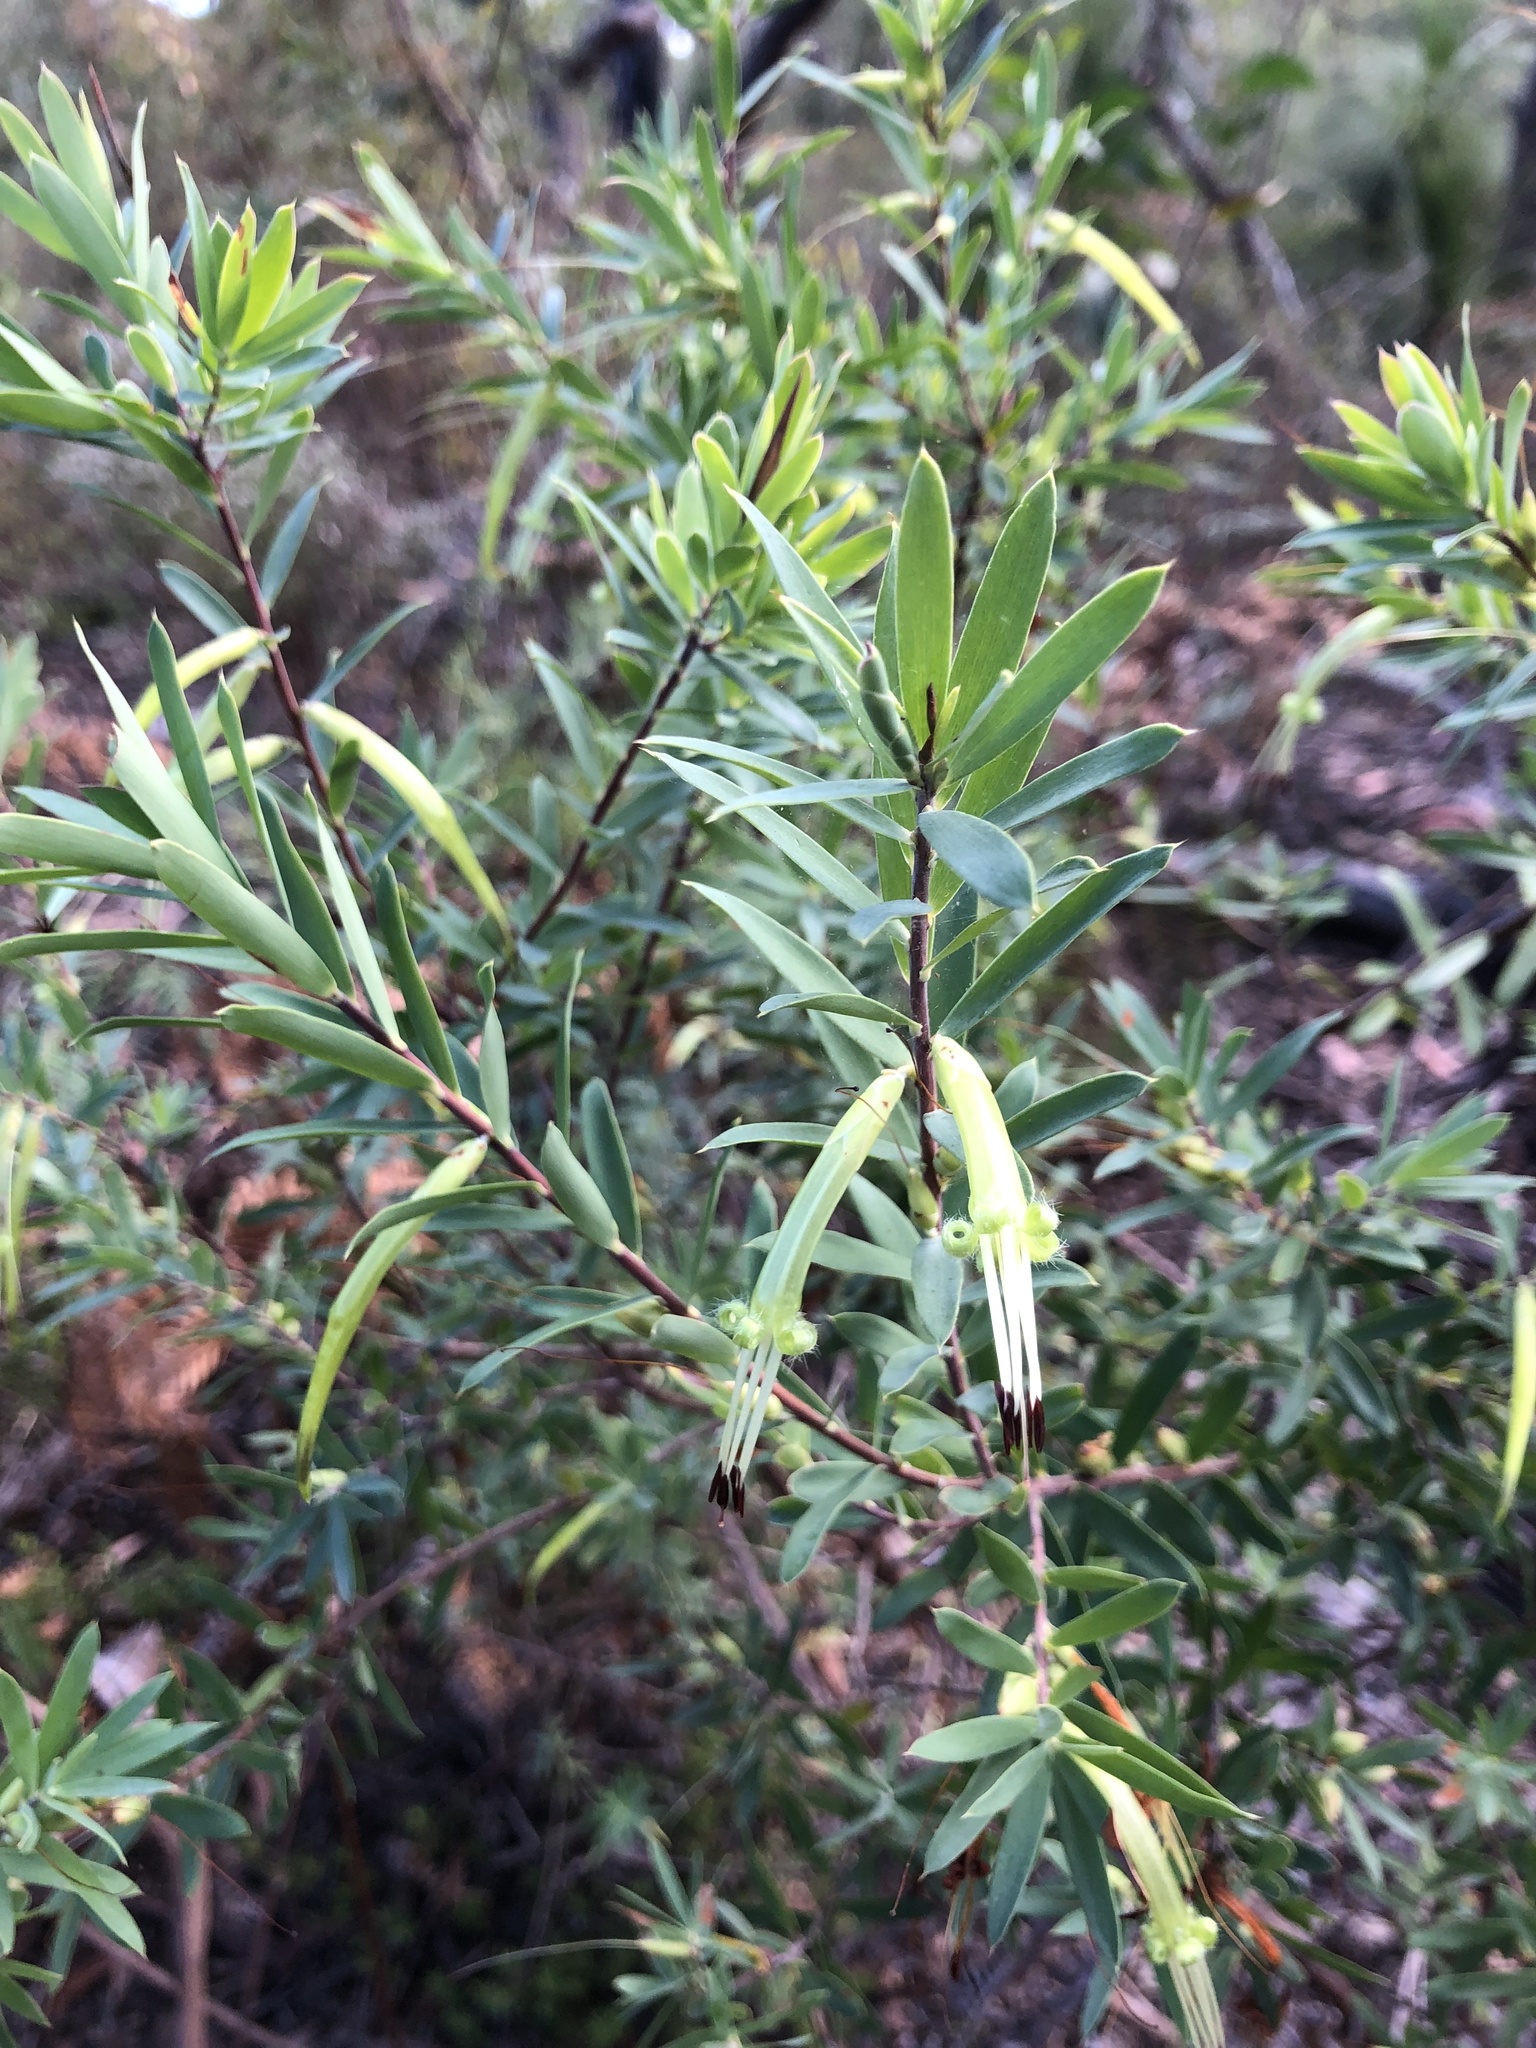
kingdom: Plantae
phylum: Tracheophyta
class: Magnoliopsida
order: Ericales
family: Ericaceae
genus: Styphelia
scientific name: Styphelia viridis
